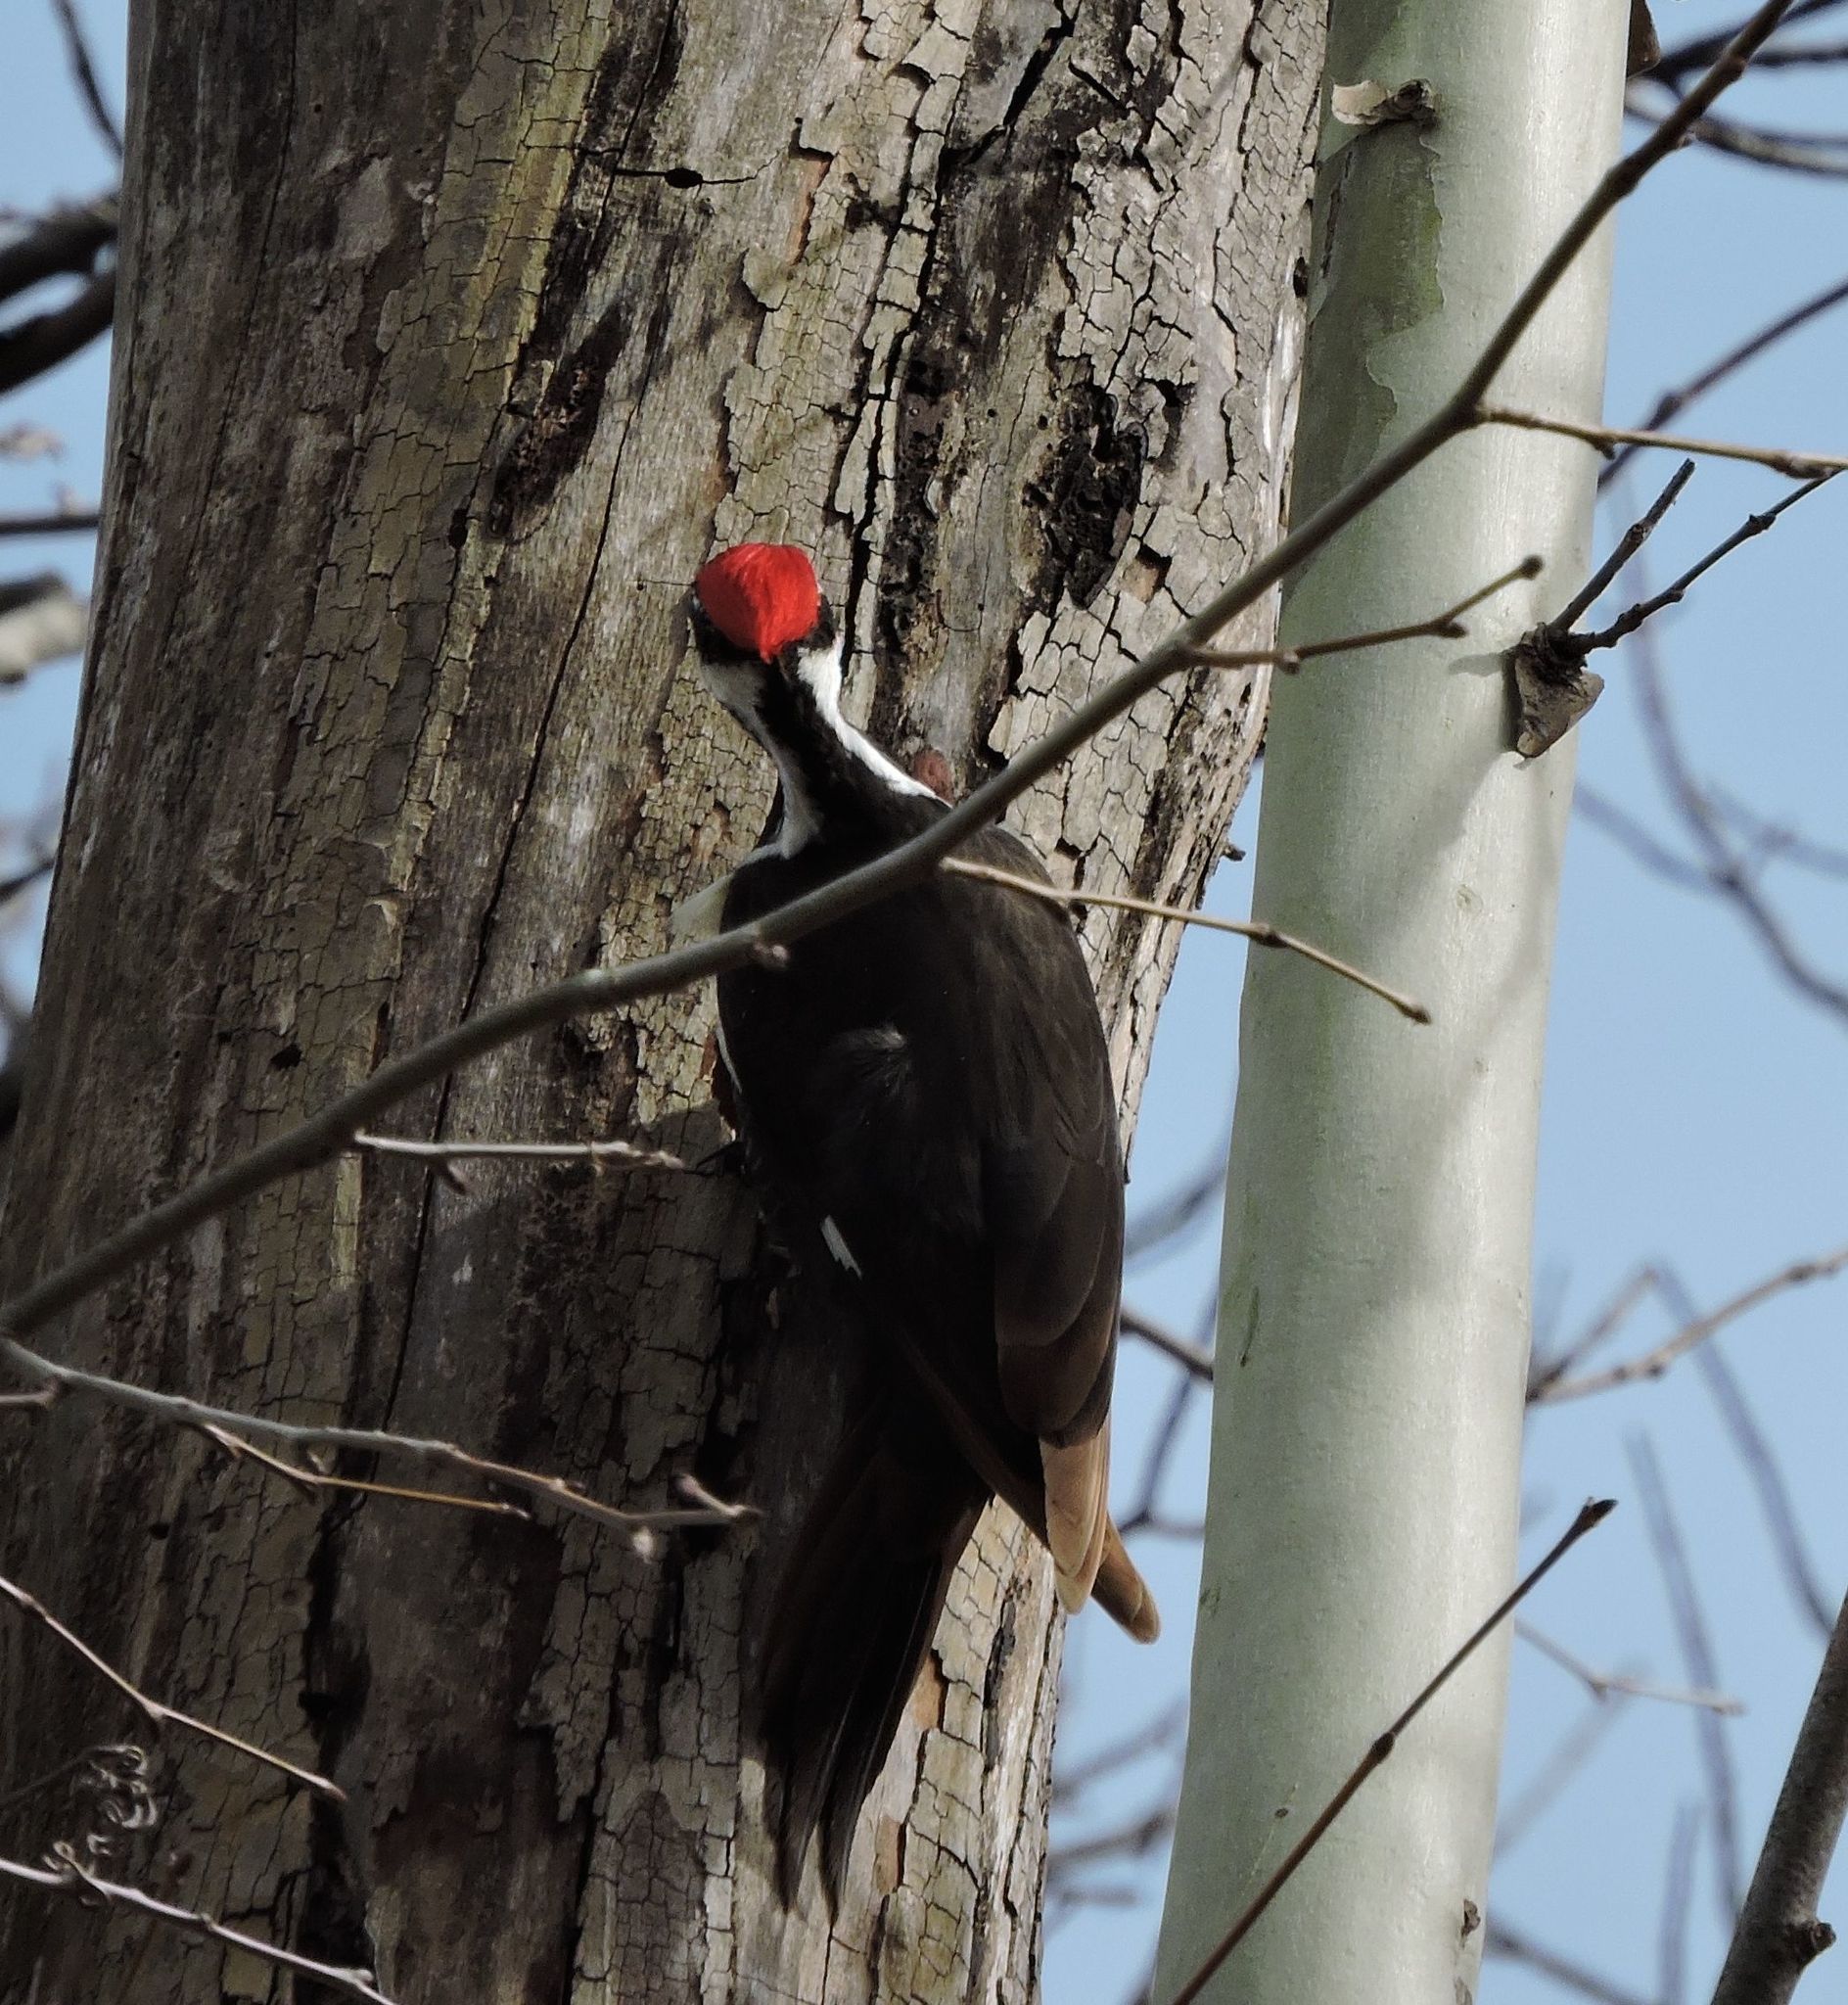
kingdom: Animalia
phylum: Chordata
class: Aves
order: Piciformes
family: Picidae
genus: Dryocopus
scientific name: Dryocopus pileatus
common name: Pileated woodpecker
